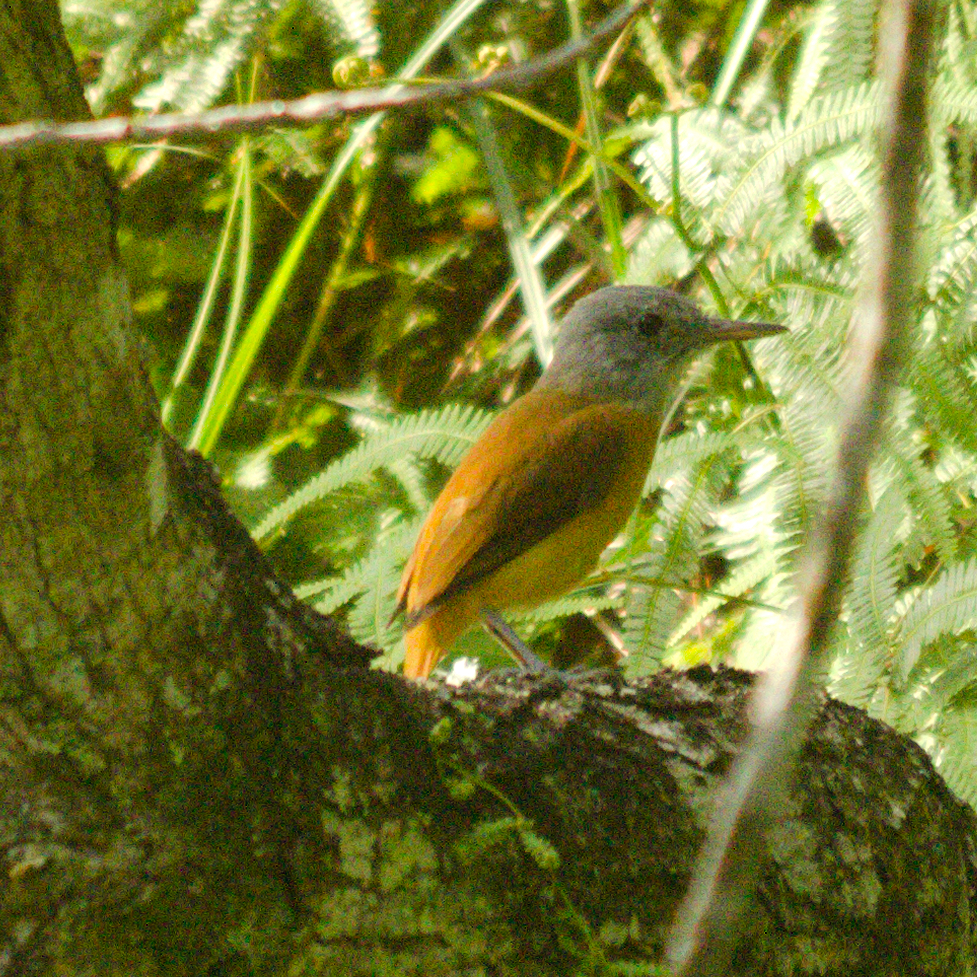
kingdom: Animalia
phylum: Chordata
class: Aves
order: Passeriformes
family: Tyrannidae
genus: Attila
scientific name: Attila rufus
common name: Grey-hooded attila
